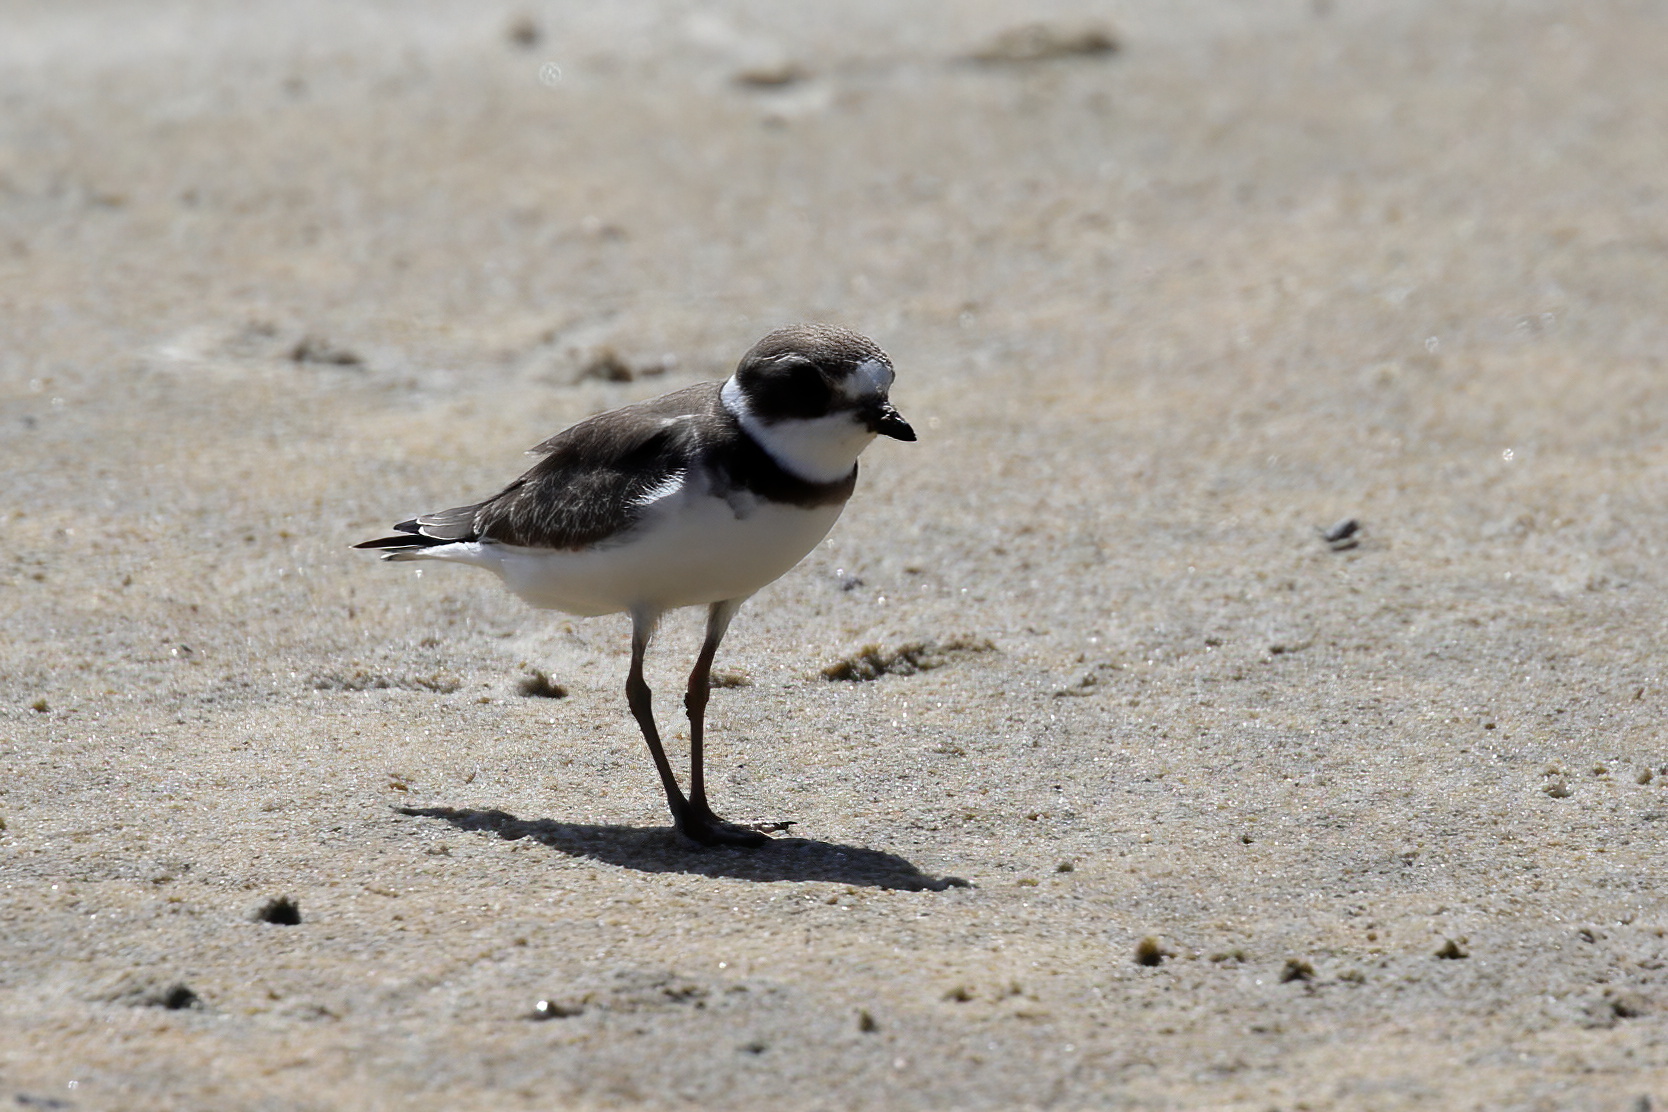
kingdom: Animalia
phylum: Chordata
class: Aves
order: Charadriiformes
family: Charadriidae
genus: Charadrius
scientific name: Charadrius semipalmatus
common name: Semipalmated plover
